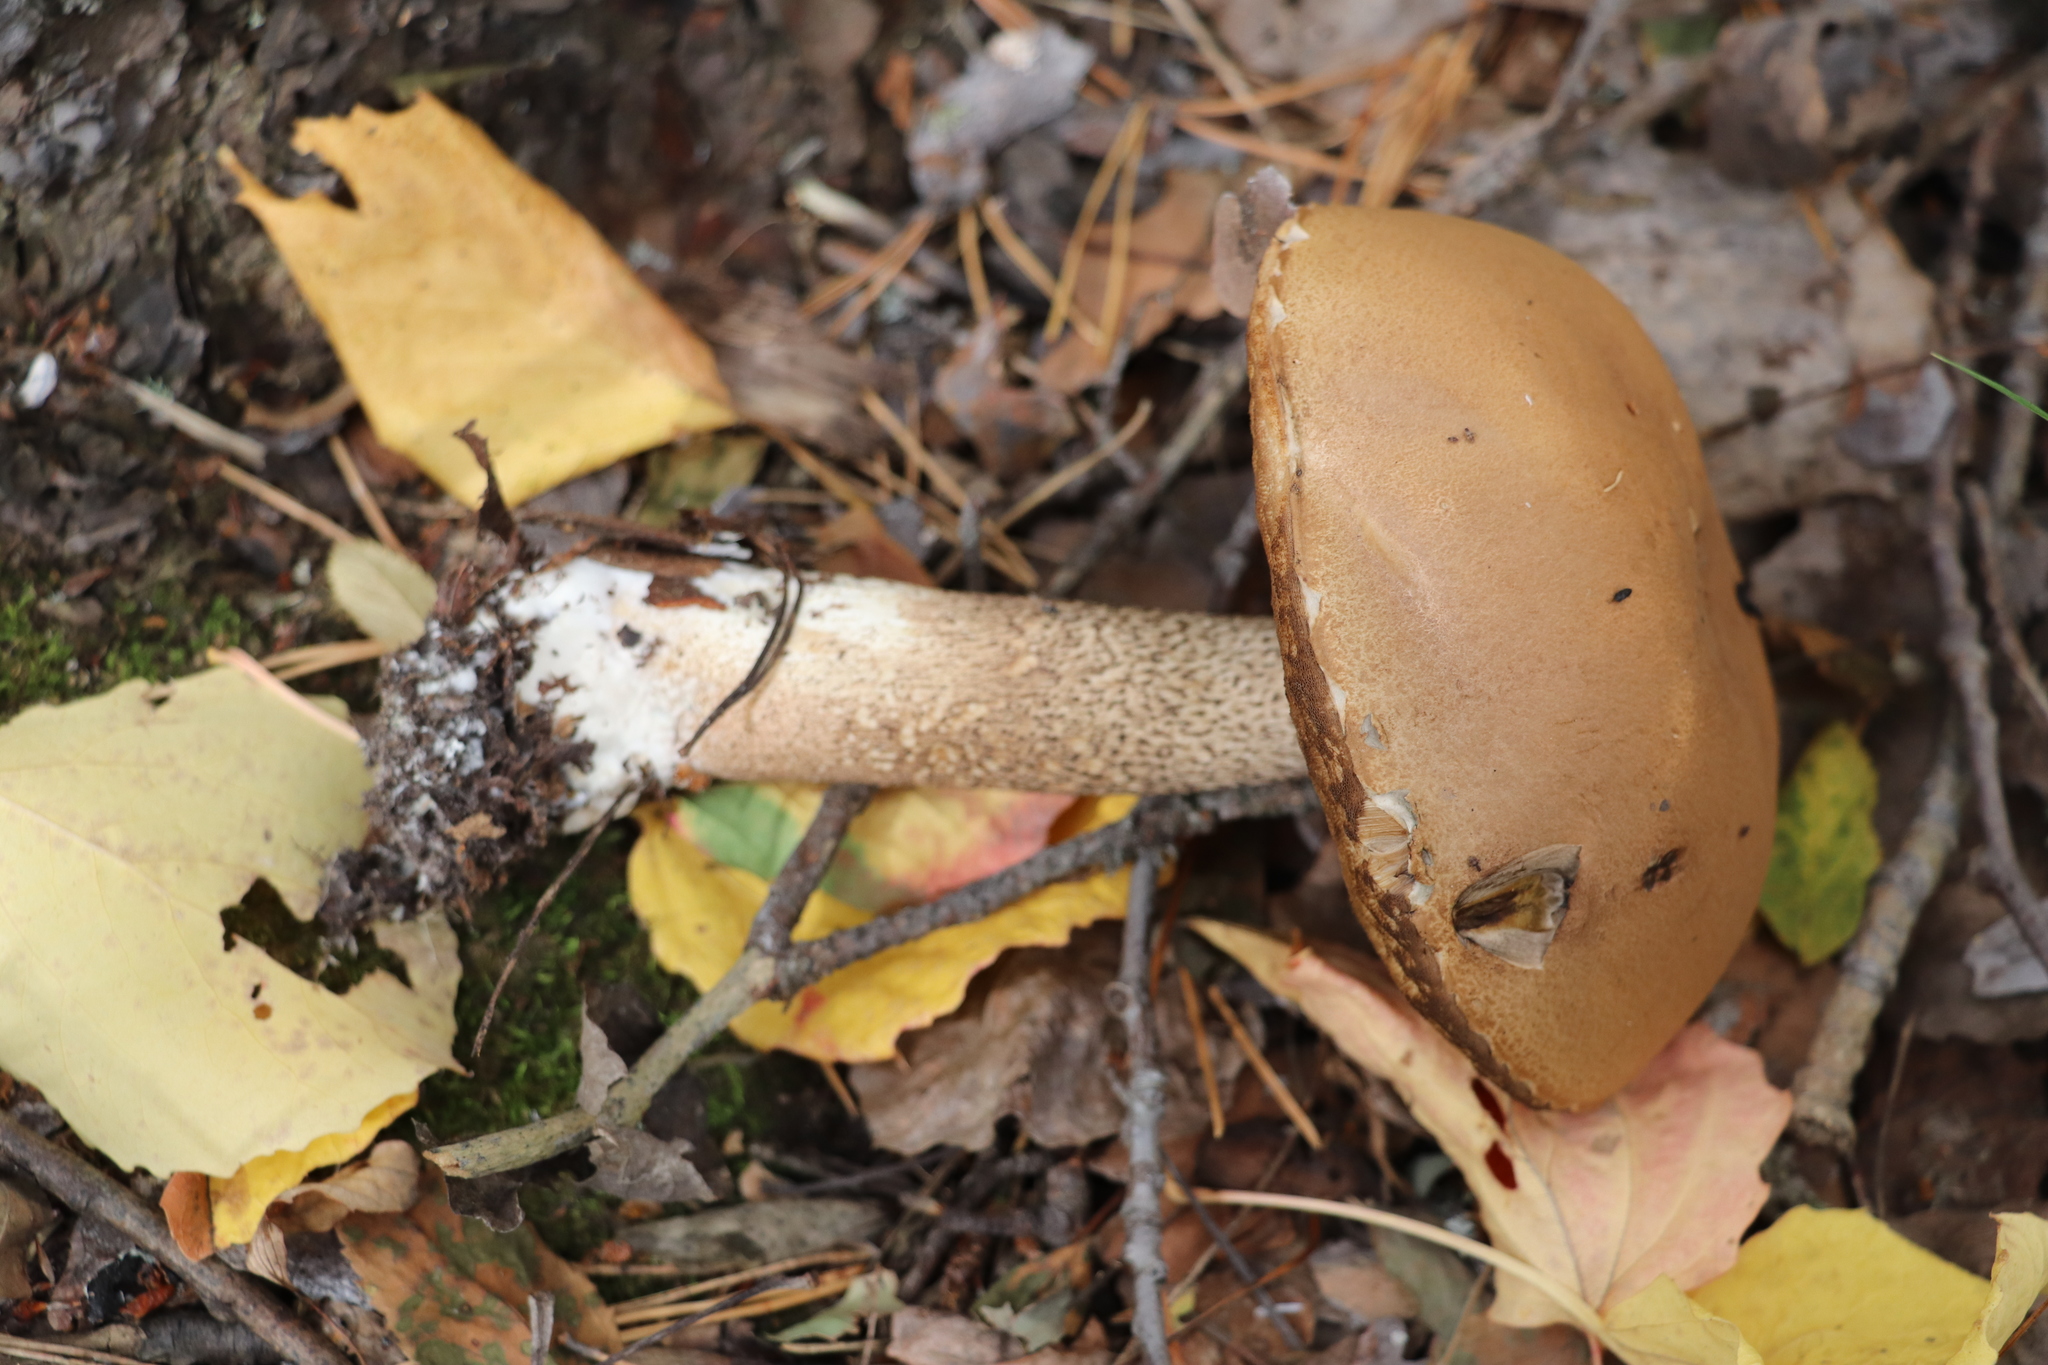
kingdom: Fungi
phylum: Basidiomycota
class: Agaricomycetes
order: Boletales
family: Boletaceae
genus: Leccinum
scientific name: Leccinum scabrum
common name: Blushing bolete
